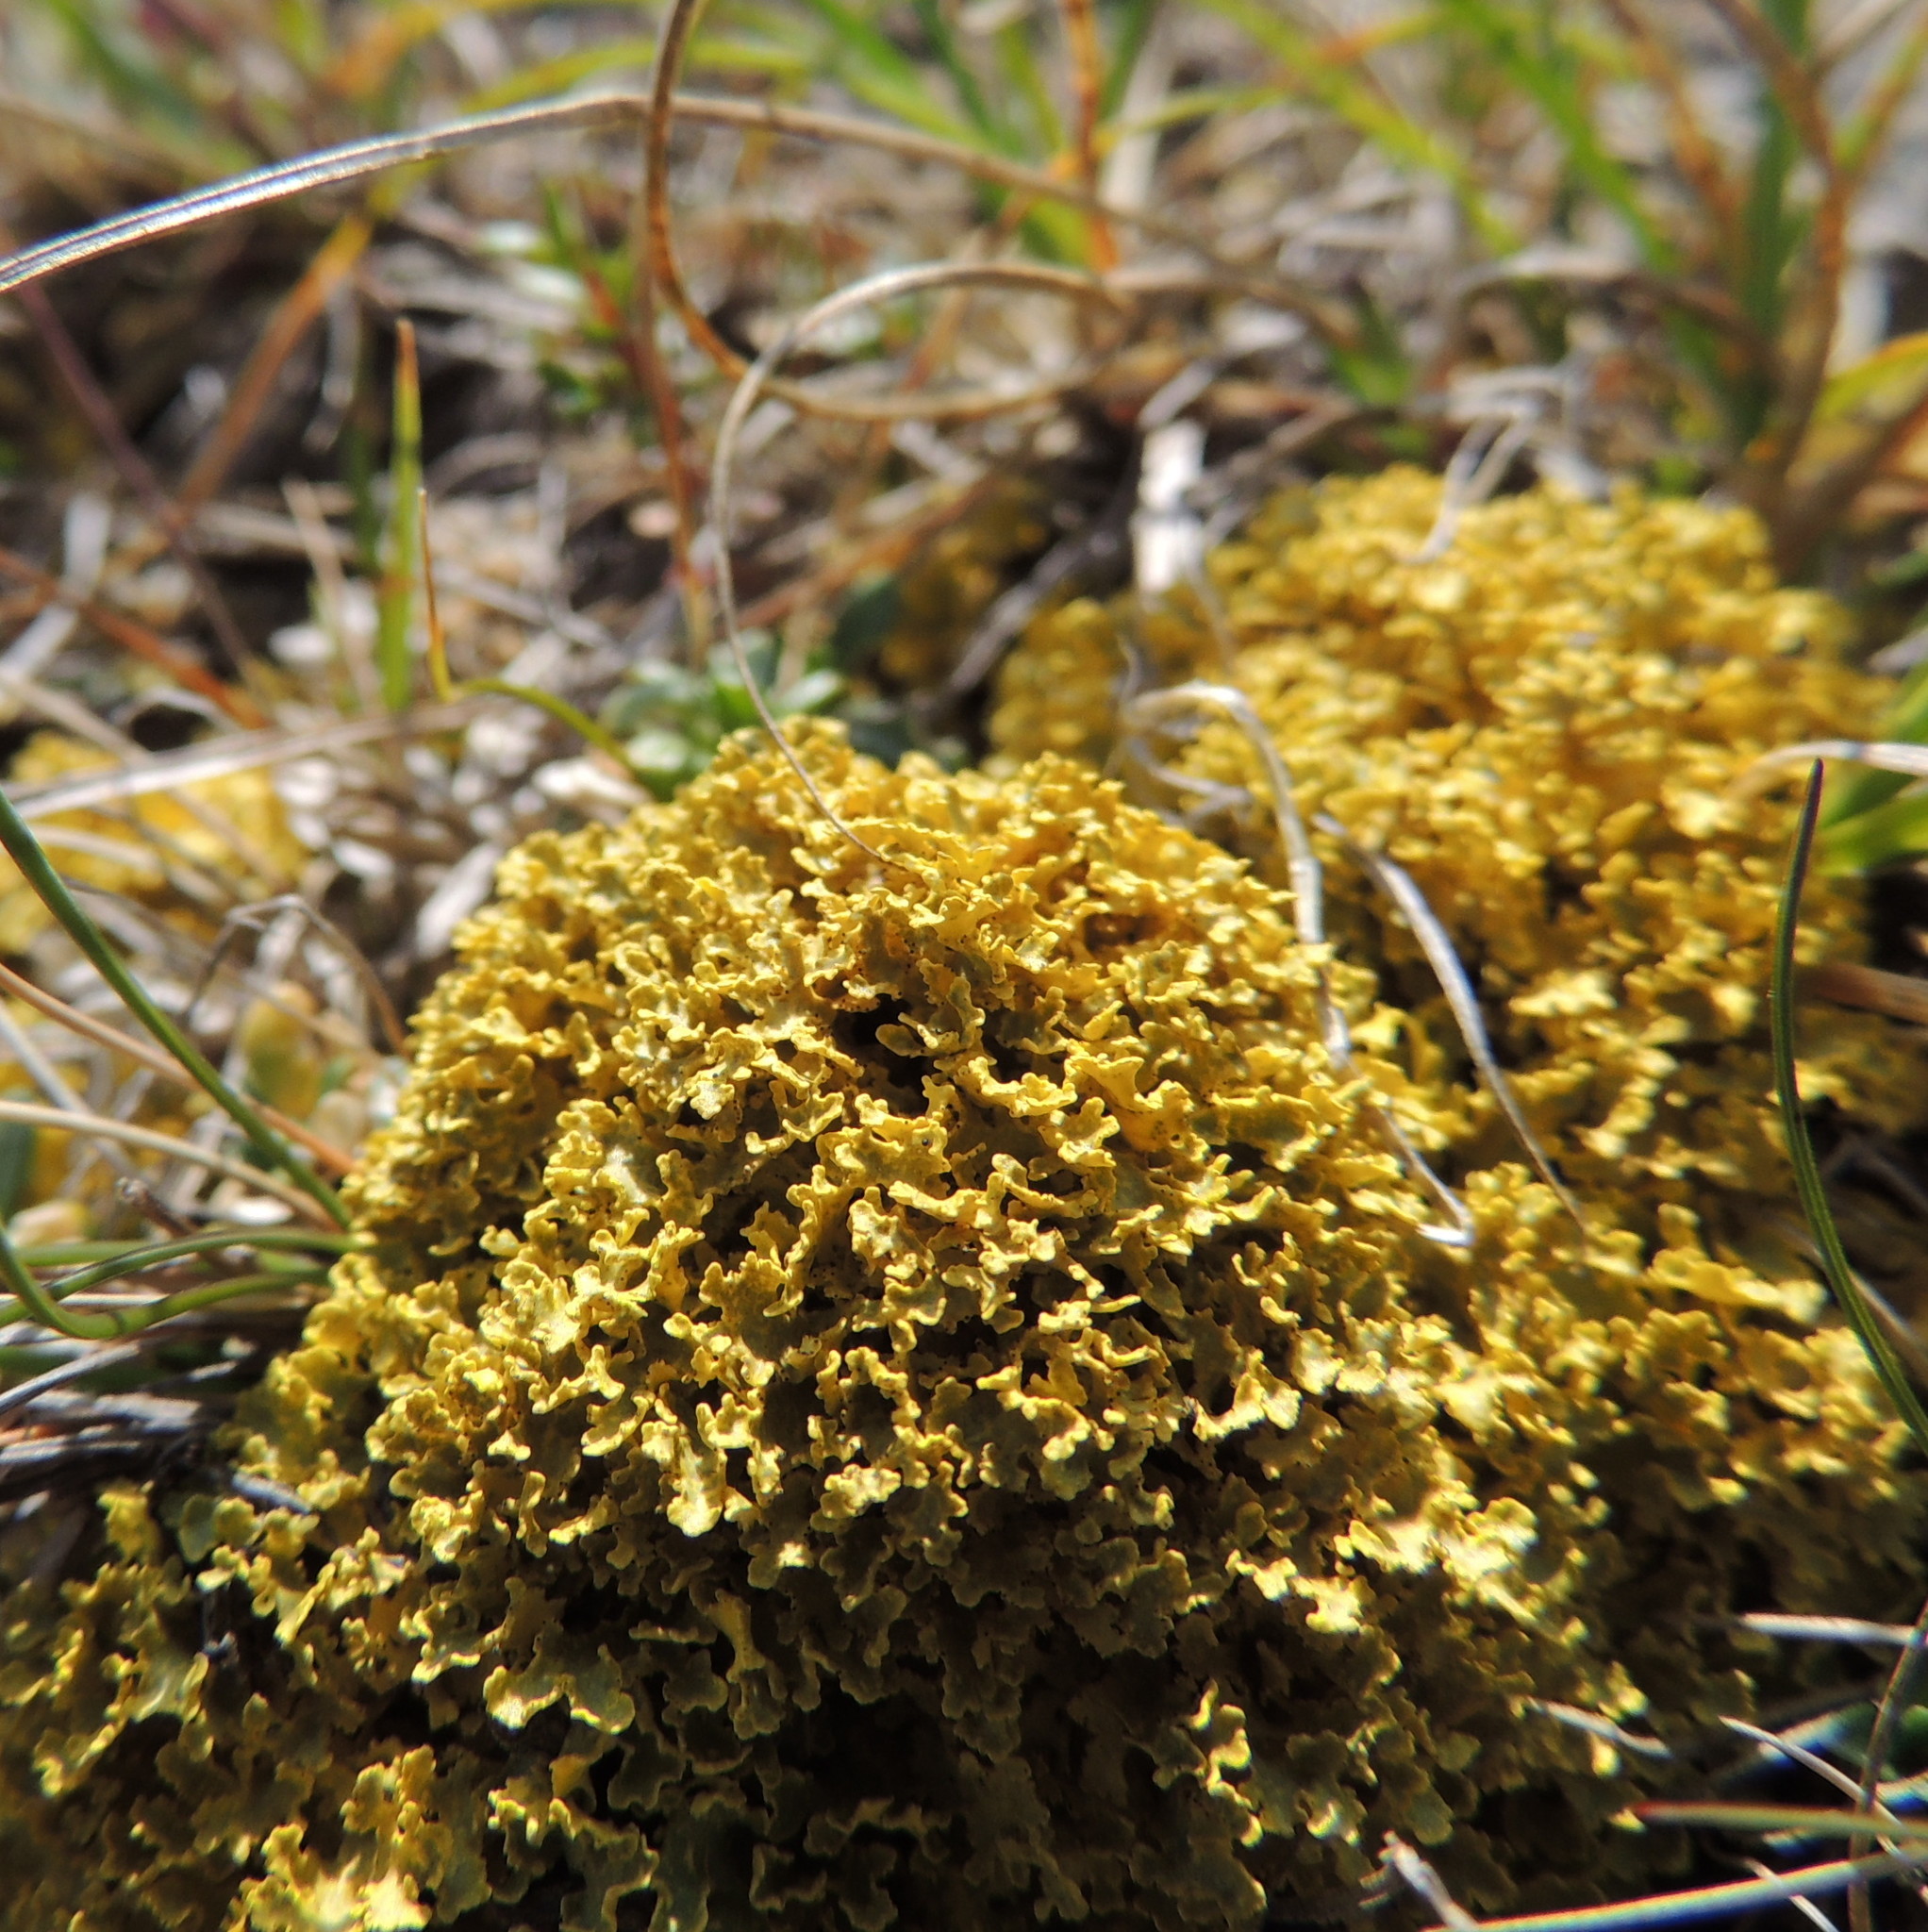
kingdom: Fungi
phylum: Ascomycota
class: Lecanoromycetes
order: Lecanorales
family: Parmeliaceae
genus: Vulpicida
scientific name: Vulpicida juniperinus
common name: Yellow lichen
